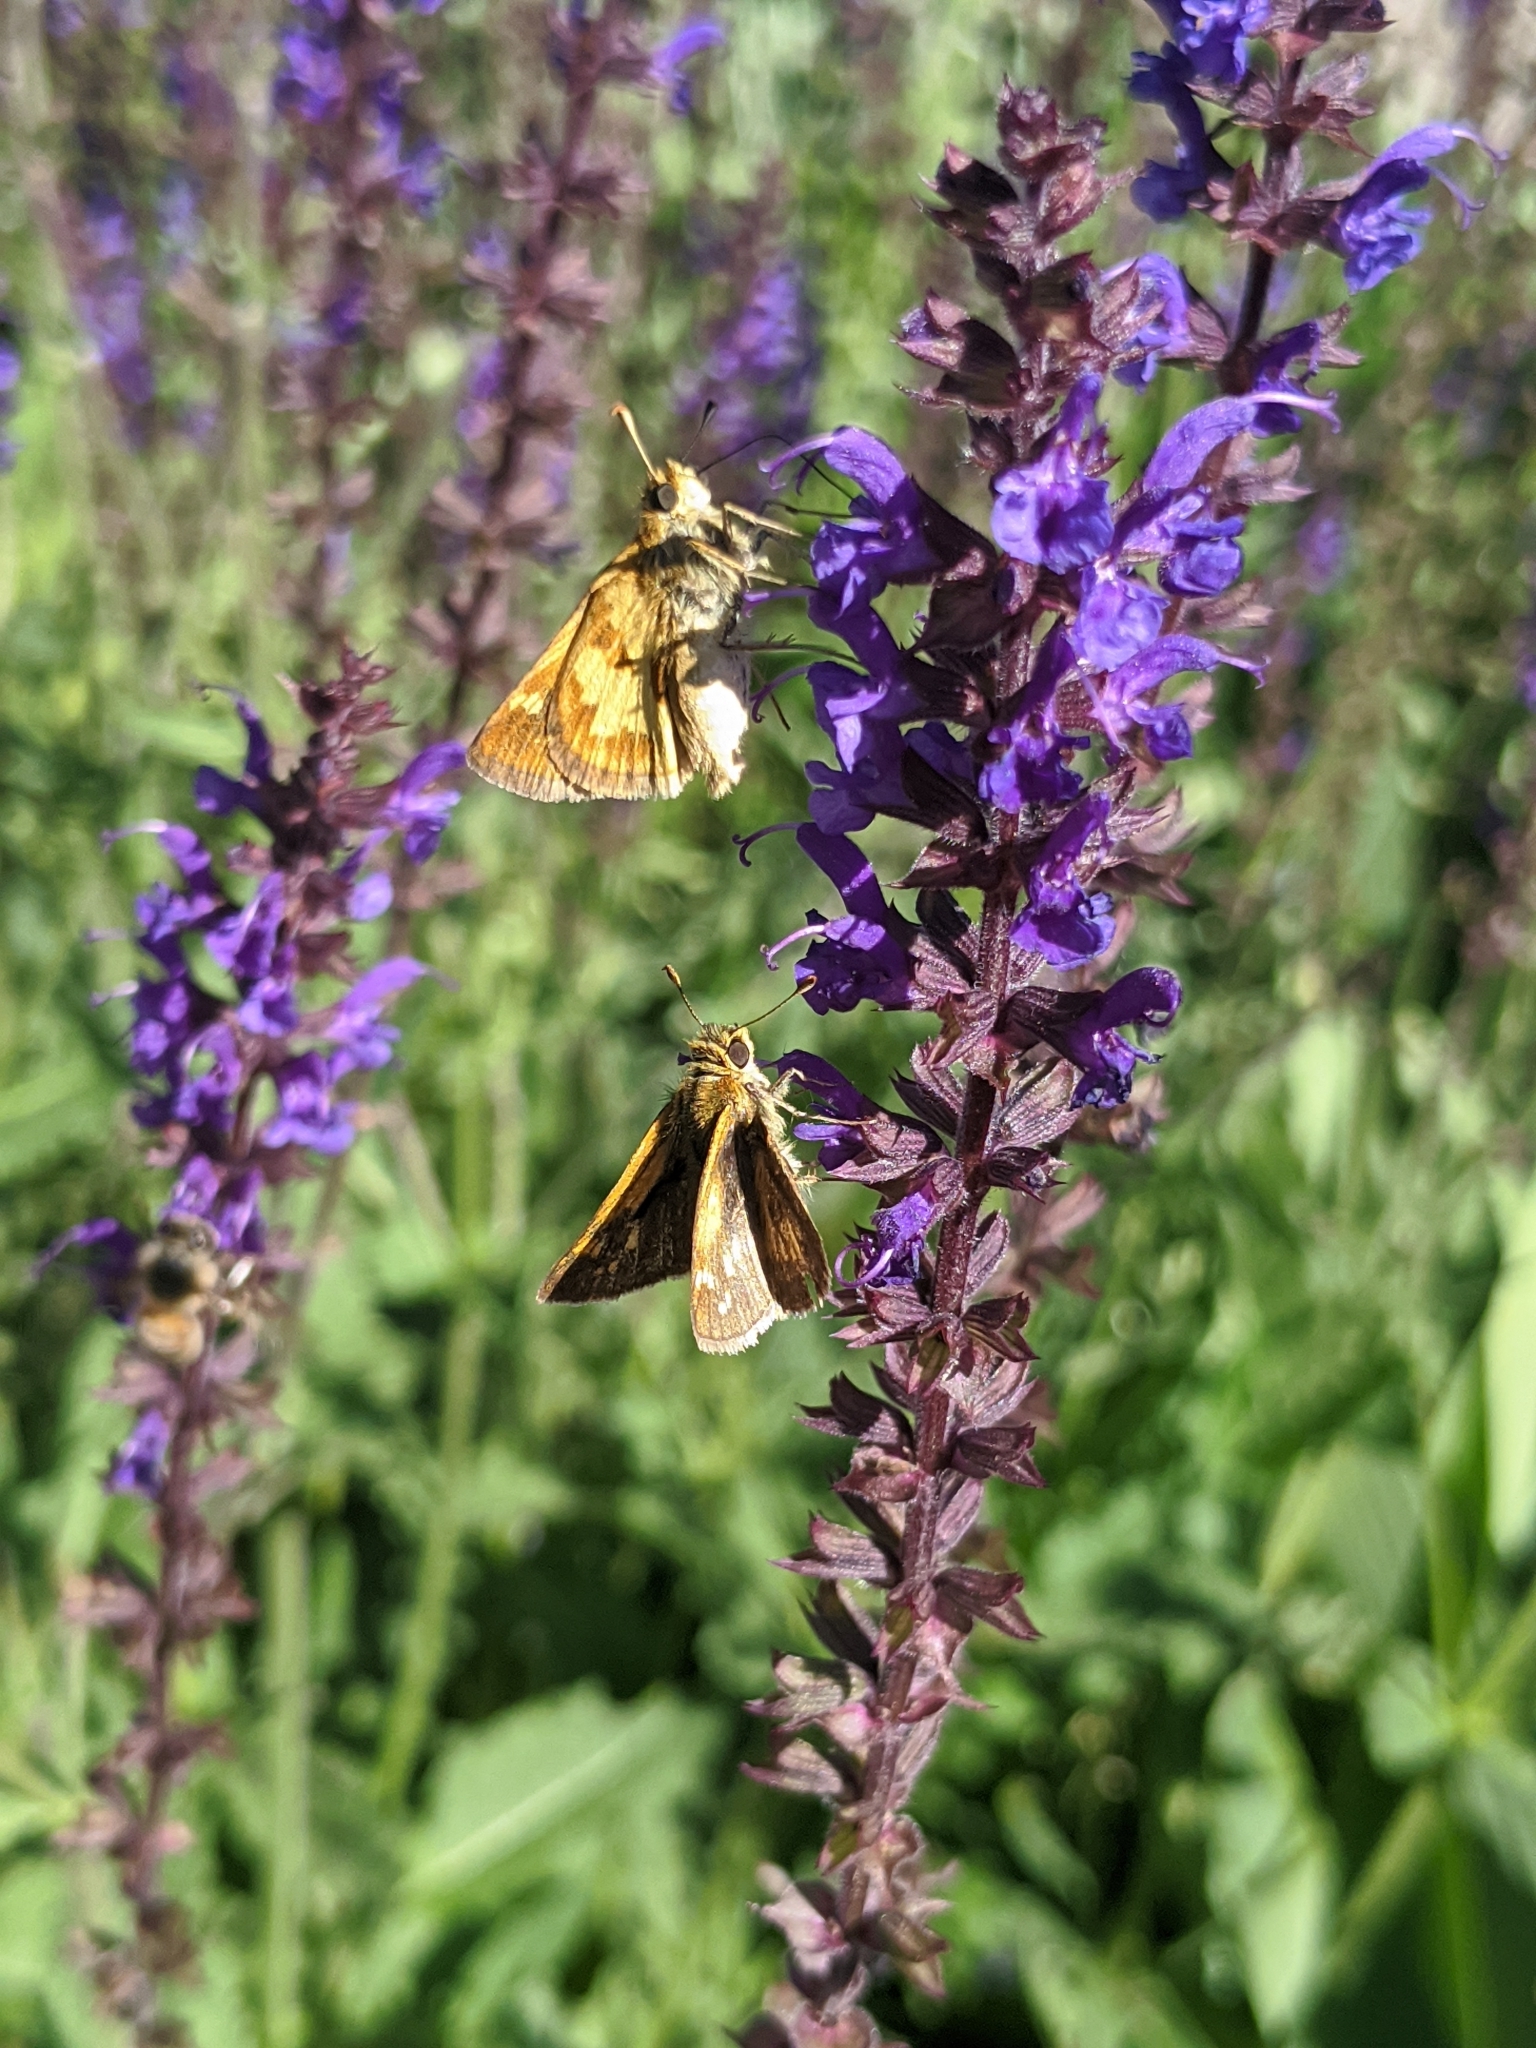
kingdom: Animalia
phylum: Arthropoda
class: Insecta
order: Lepidoptera
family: Hesperiidae
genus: Polites
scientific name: Polites coras
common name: Peck's skipper
